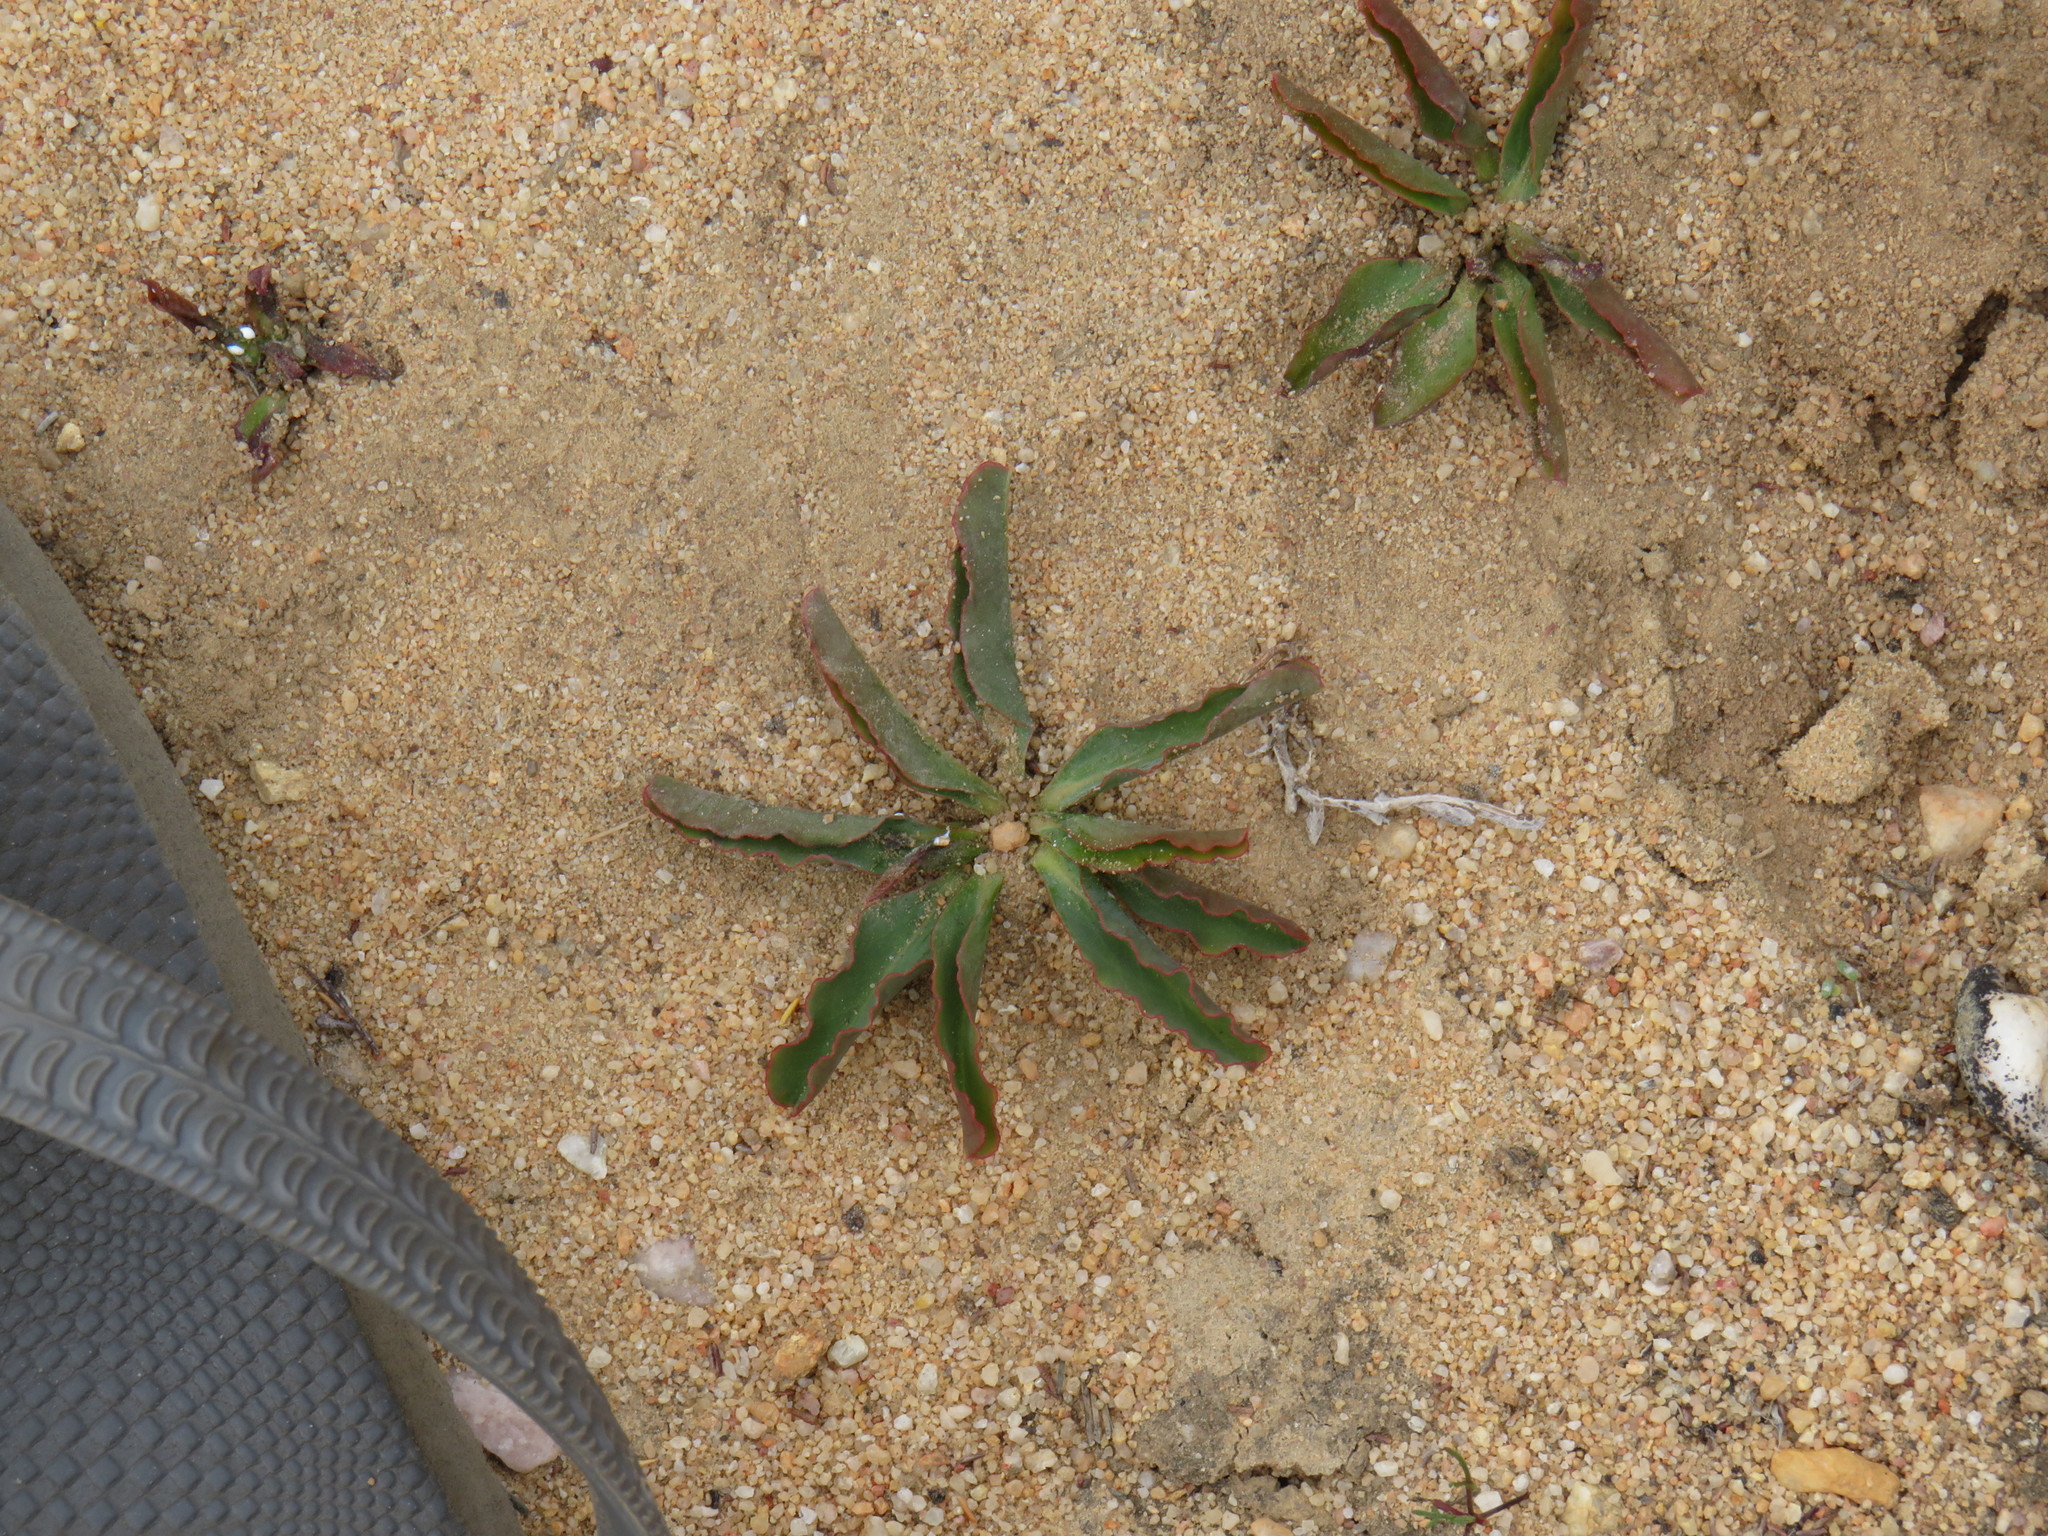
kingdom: Plantae
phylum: Tracheophyta
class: Magnoliopsida
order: Malpighiales
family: Euphorbiaceae
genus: Euphorbia
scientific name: Euphorbia tuberosa
